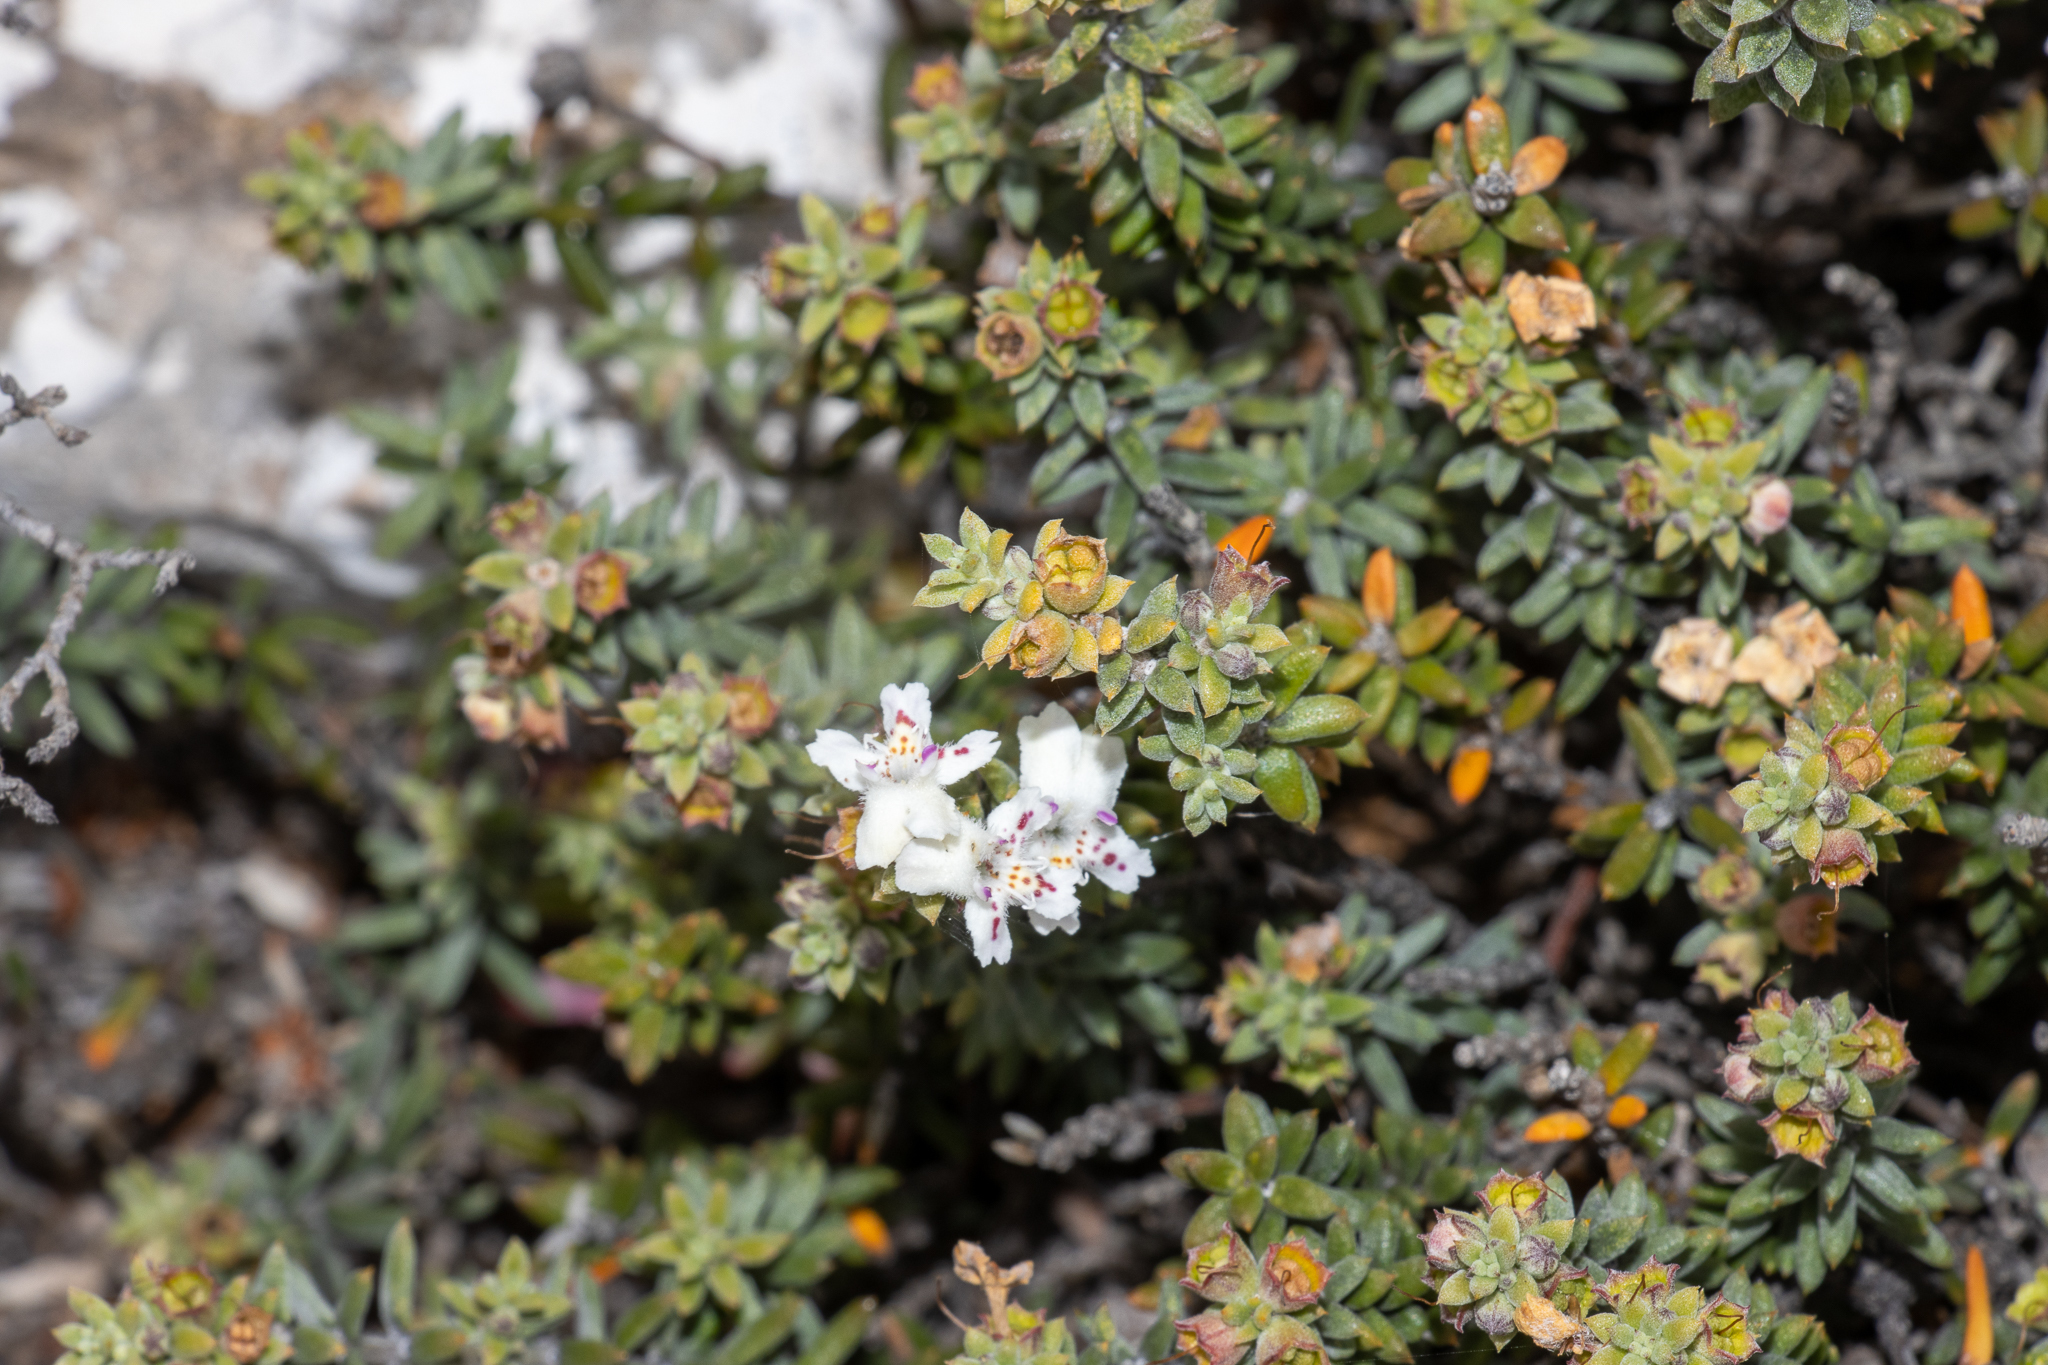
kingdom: Plantae
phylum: Tracheophyta
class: Magnoliopsida
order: Lamiales
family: Lamiaceae
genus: Westringia
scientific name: Westringia rigida
